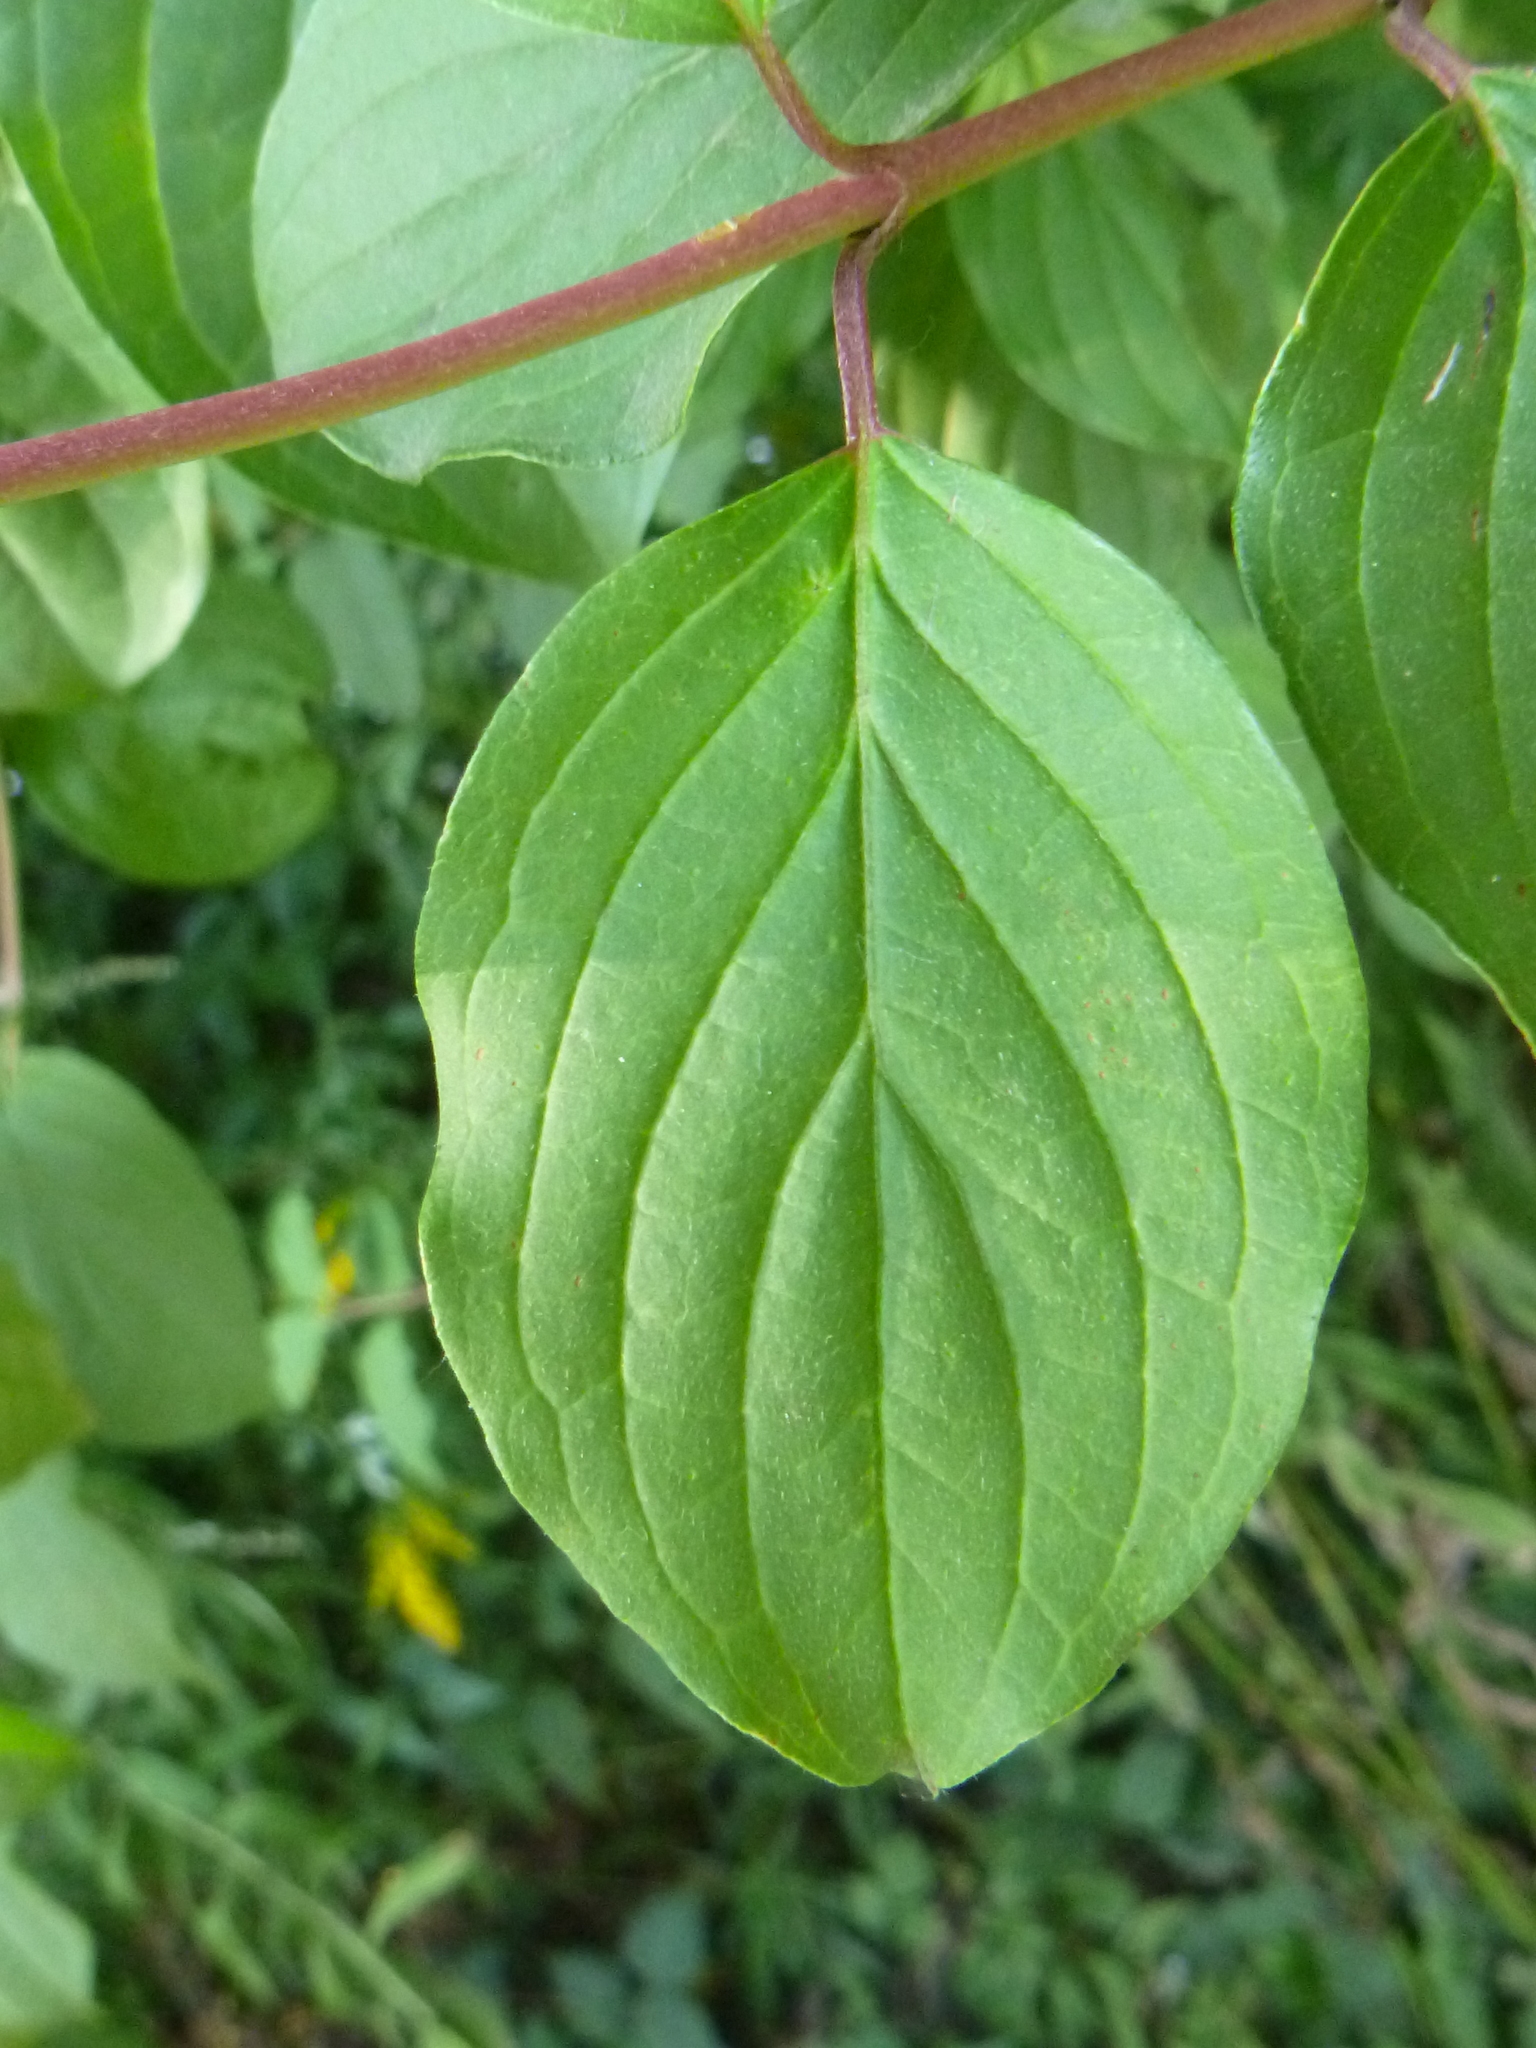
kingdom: Plantae
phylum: Tracheophyta
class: Magnoliopsida
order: Cornales
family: Cornaceae
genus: Cornus
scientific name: Cornus sanguinea
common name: Dogwood
